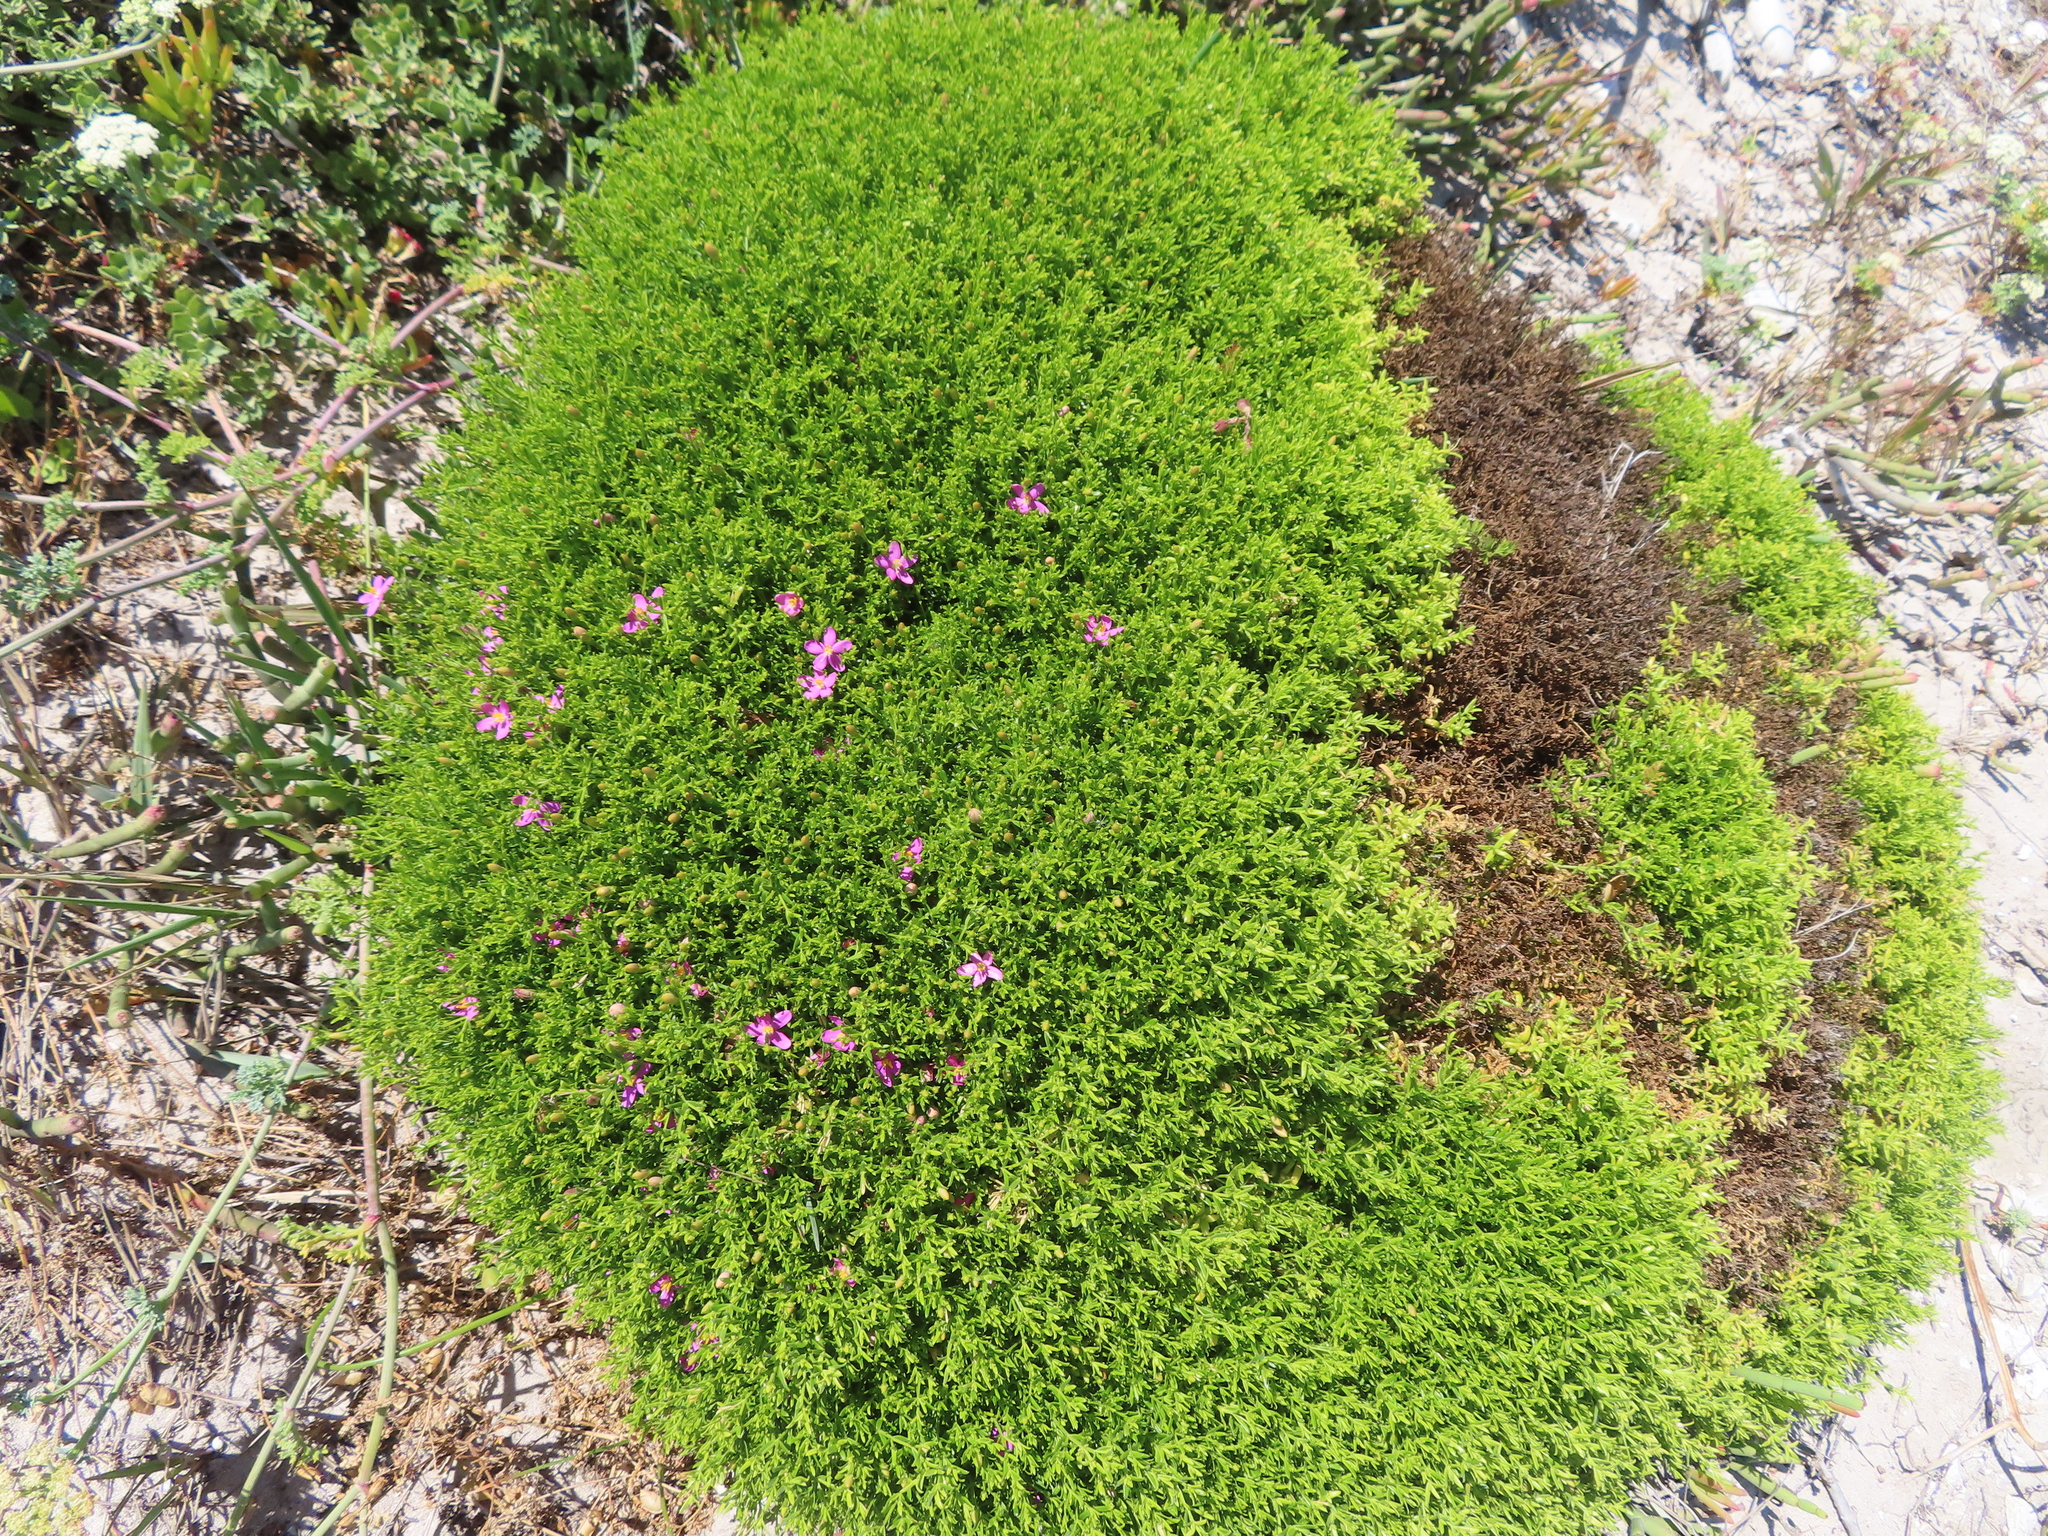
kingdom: Plantae
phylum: Tracheophyta
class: Magnoliopsida
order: Gentianales
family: Gentianaceae
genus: Chironia
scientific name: Chironia baccifera
